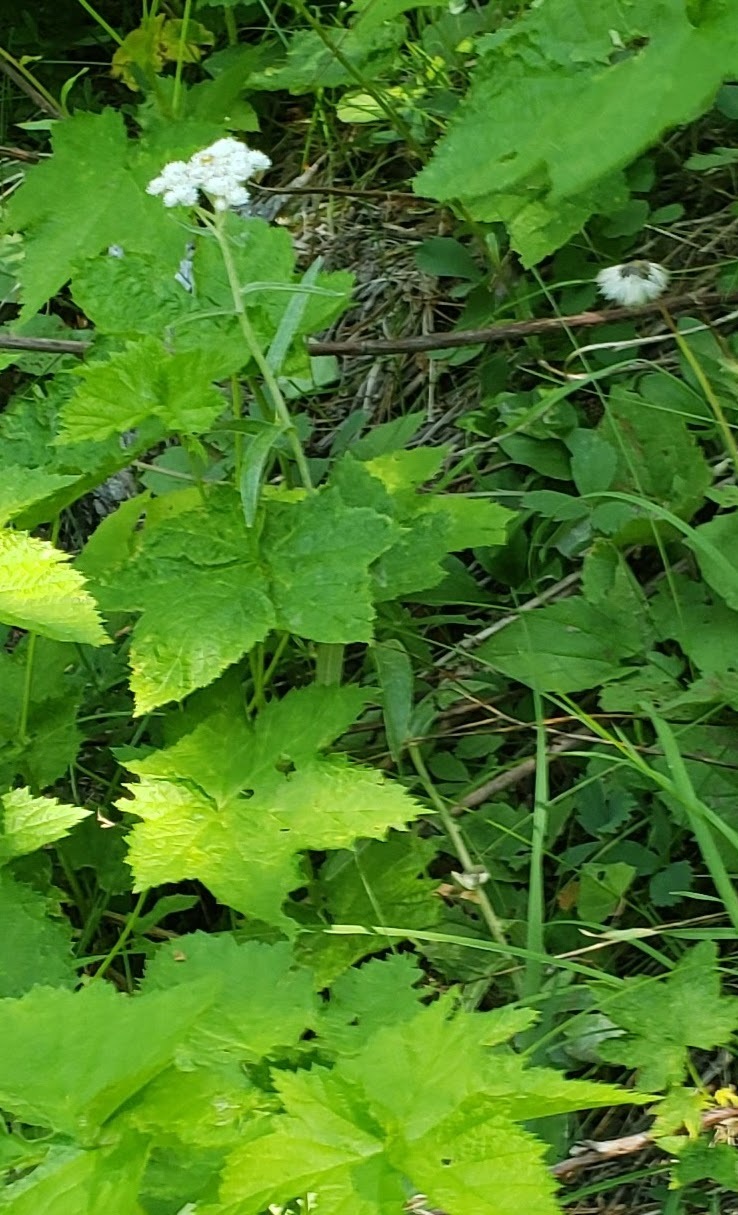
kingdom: Plantae
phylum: Tracheophyta
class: Magnoliopsida
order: Asterales
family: Asteraceae
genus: Anaphalis
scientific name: Anaphalis margaritacea
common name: Pearly everlasting
